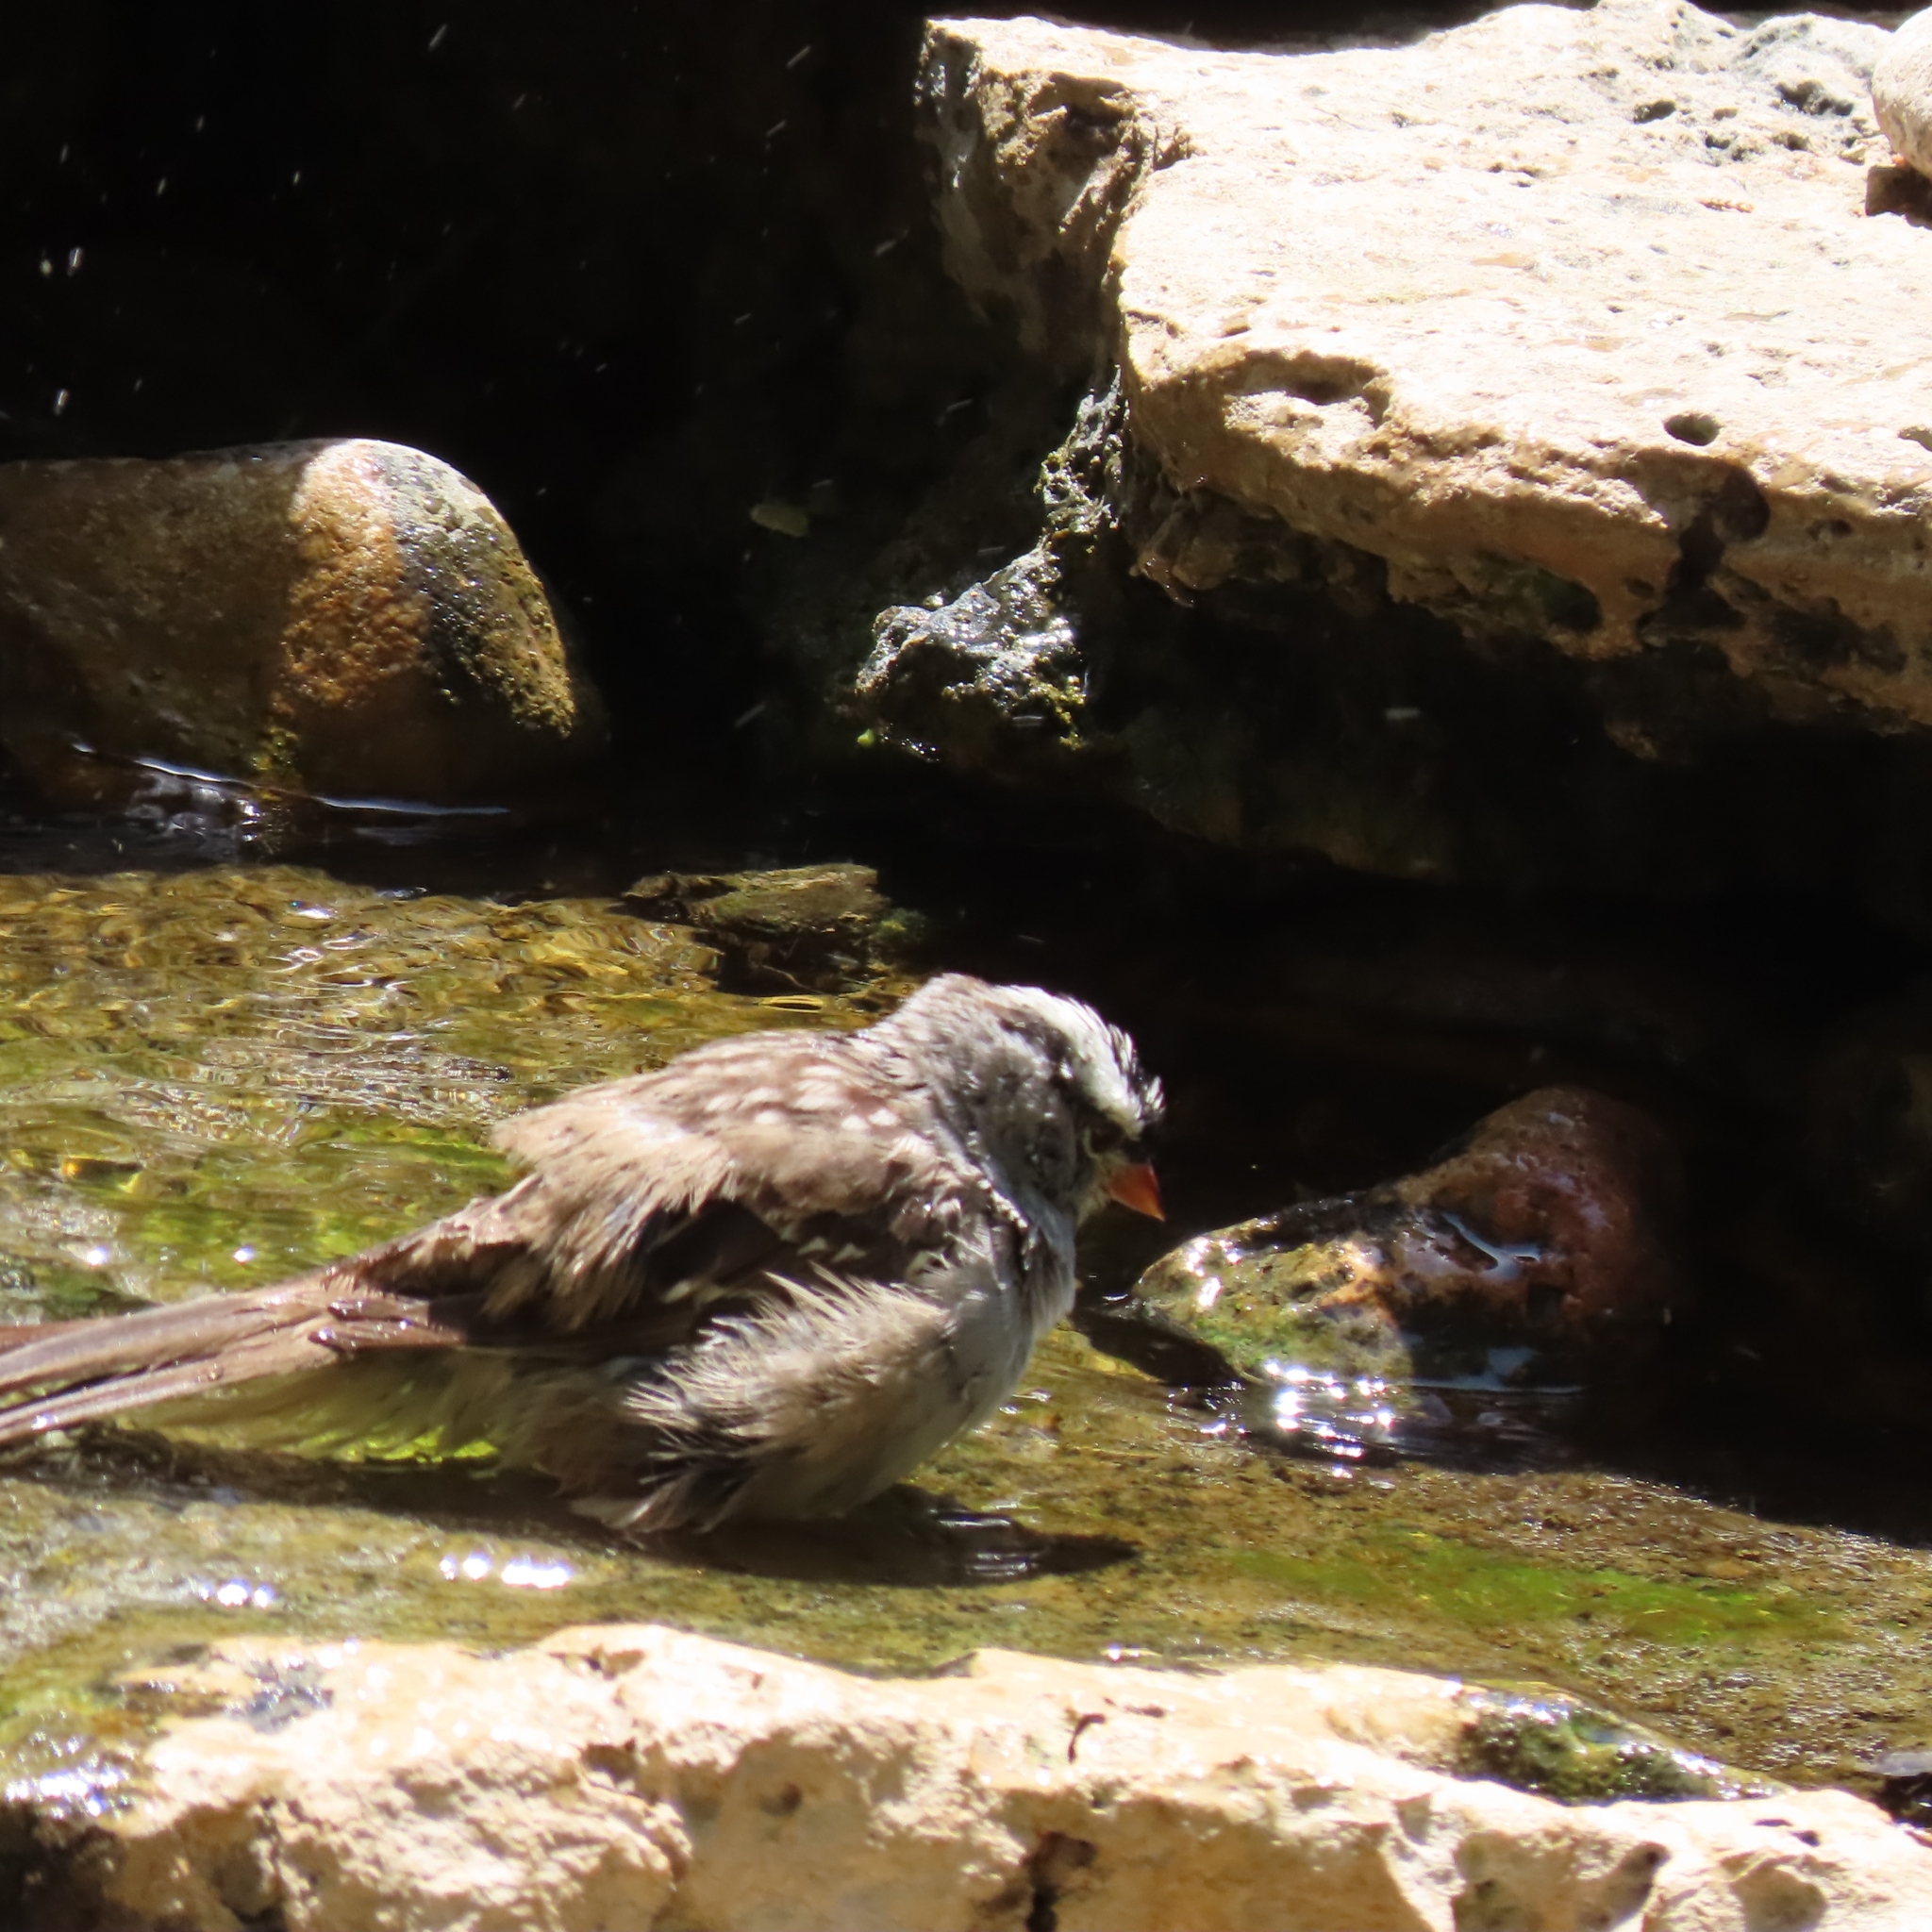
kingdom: Animalia
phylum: Chordata
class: Aves
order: Passeriformes
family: Passerellidae
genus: Zonotrichia
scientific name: Zonotrichia leucophrys
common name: White-crowned sparrow
